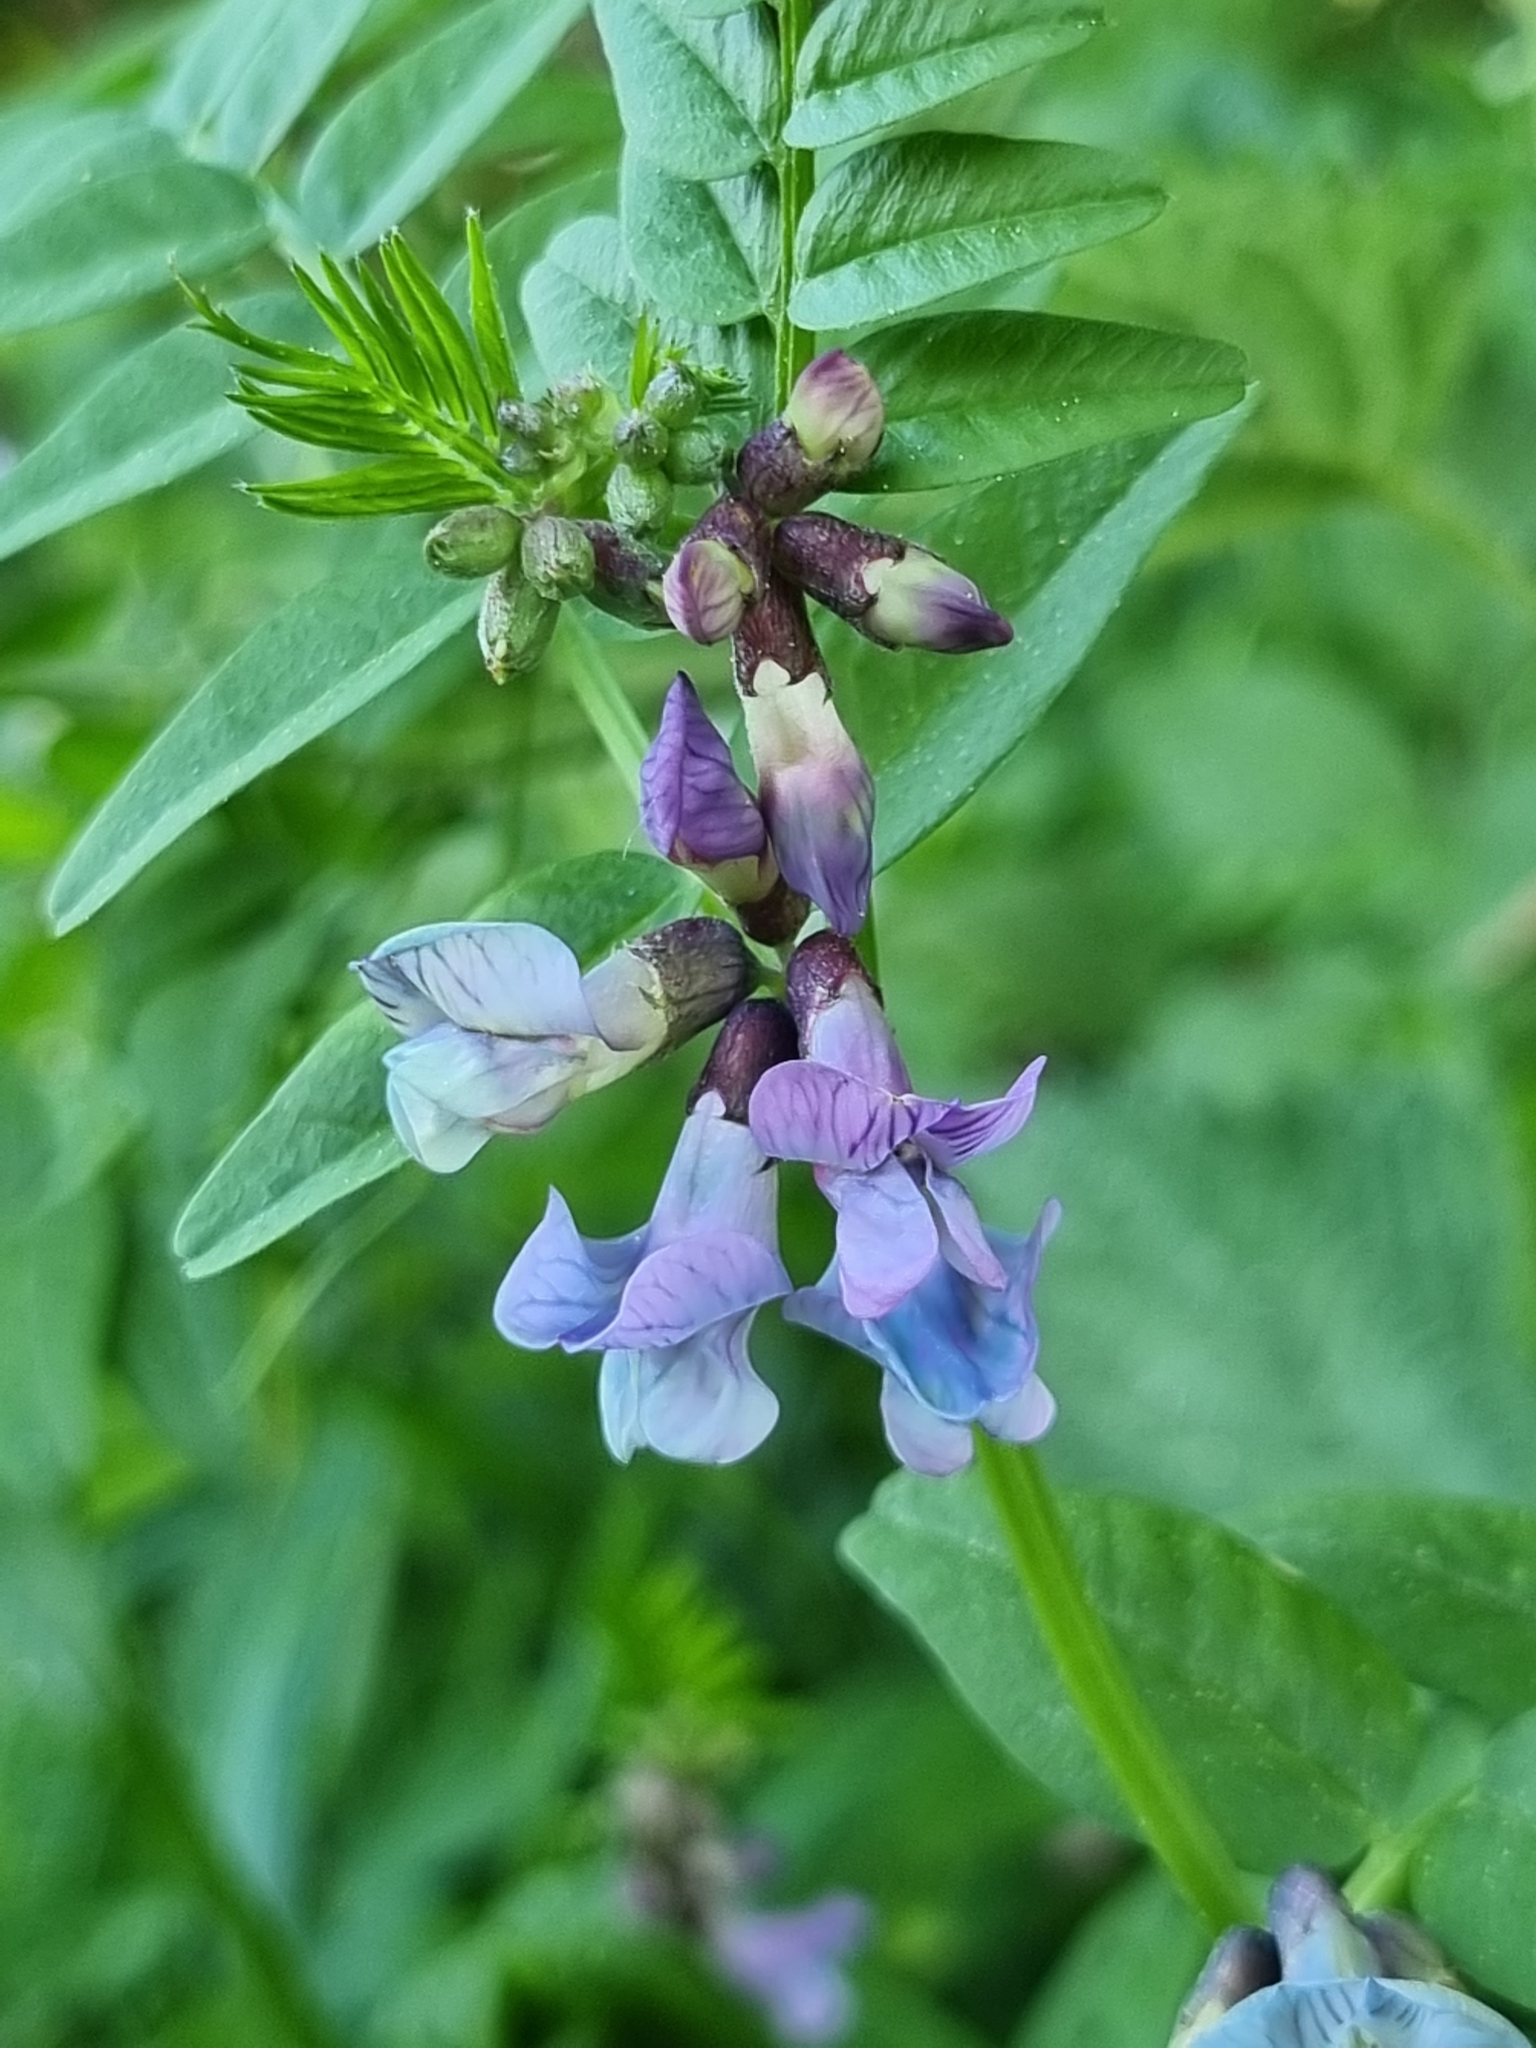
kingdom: Plantae
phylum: Tracheophyta
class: Magnoliopsida
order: Fabales
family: Fabaceae
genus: Vicia
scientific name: Vicia sepium
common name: Bush vetch
